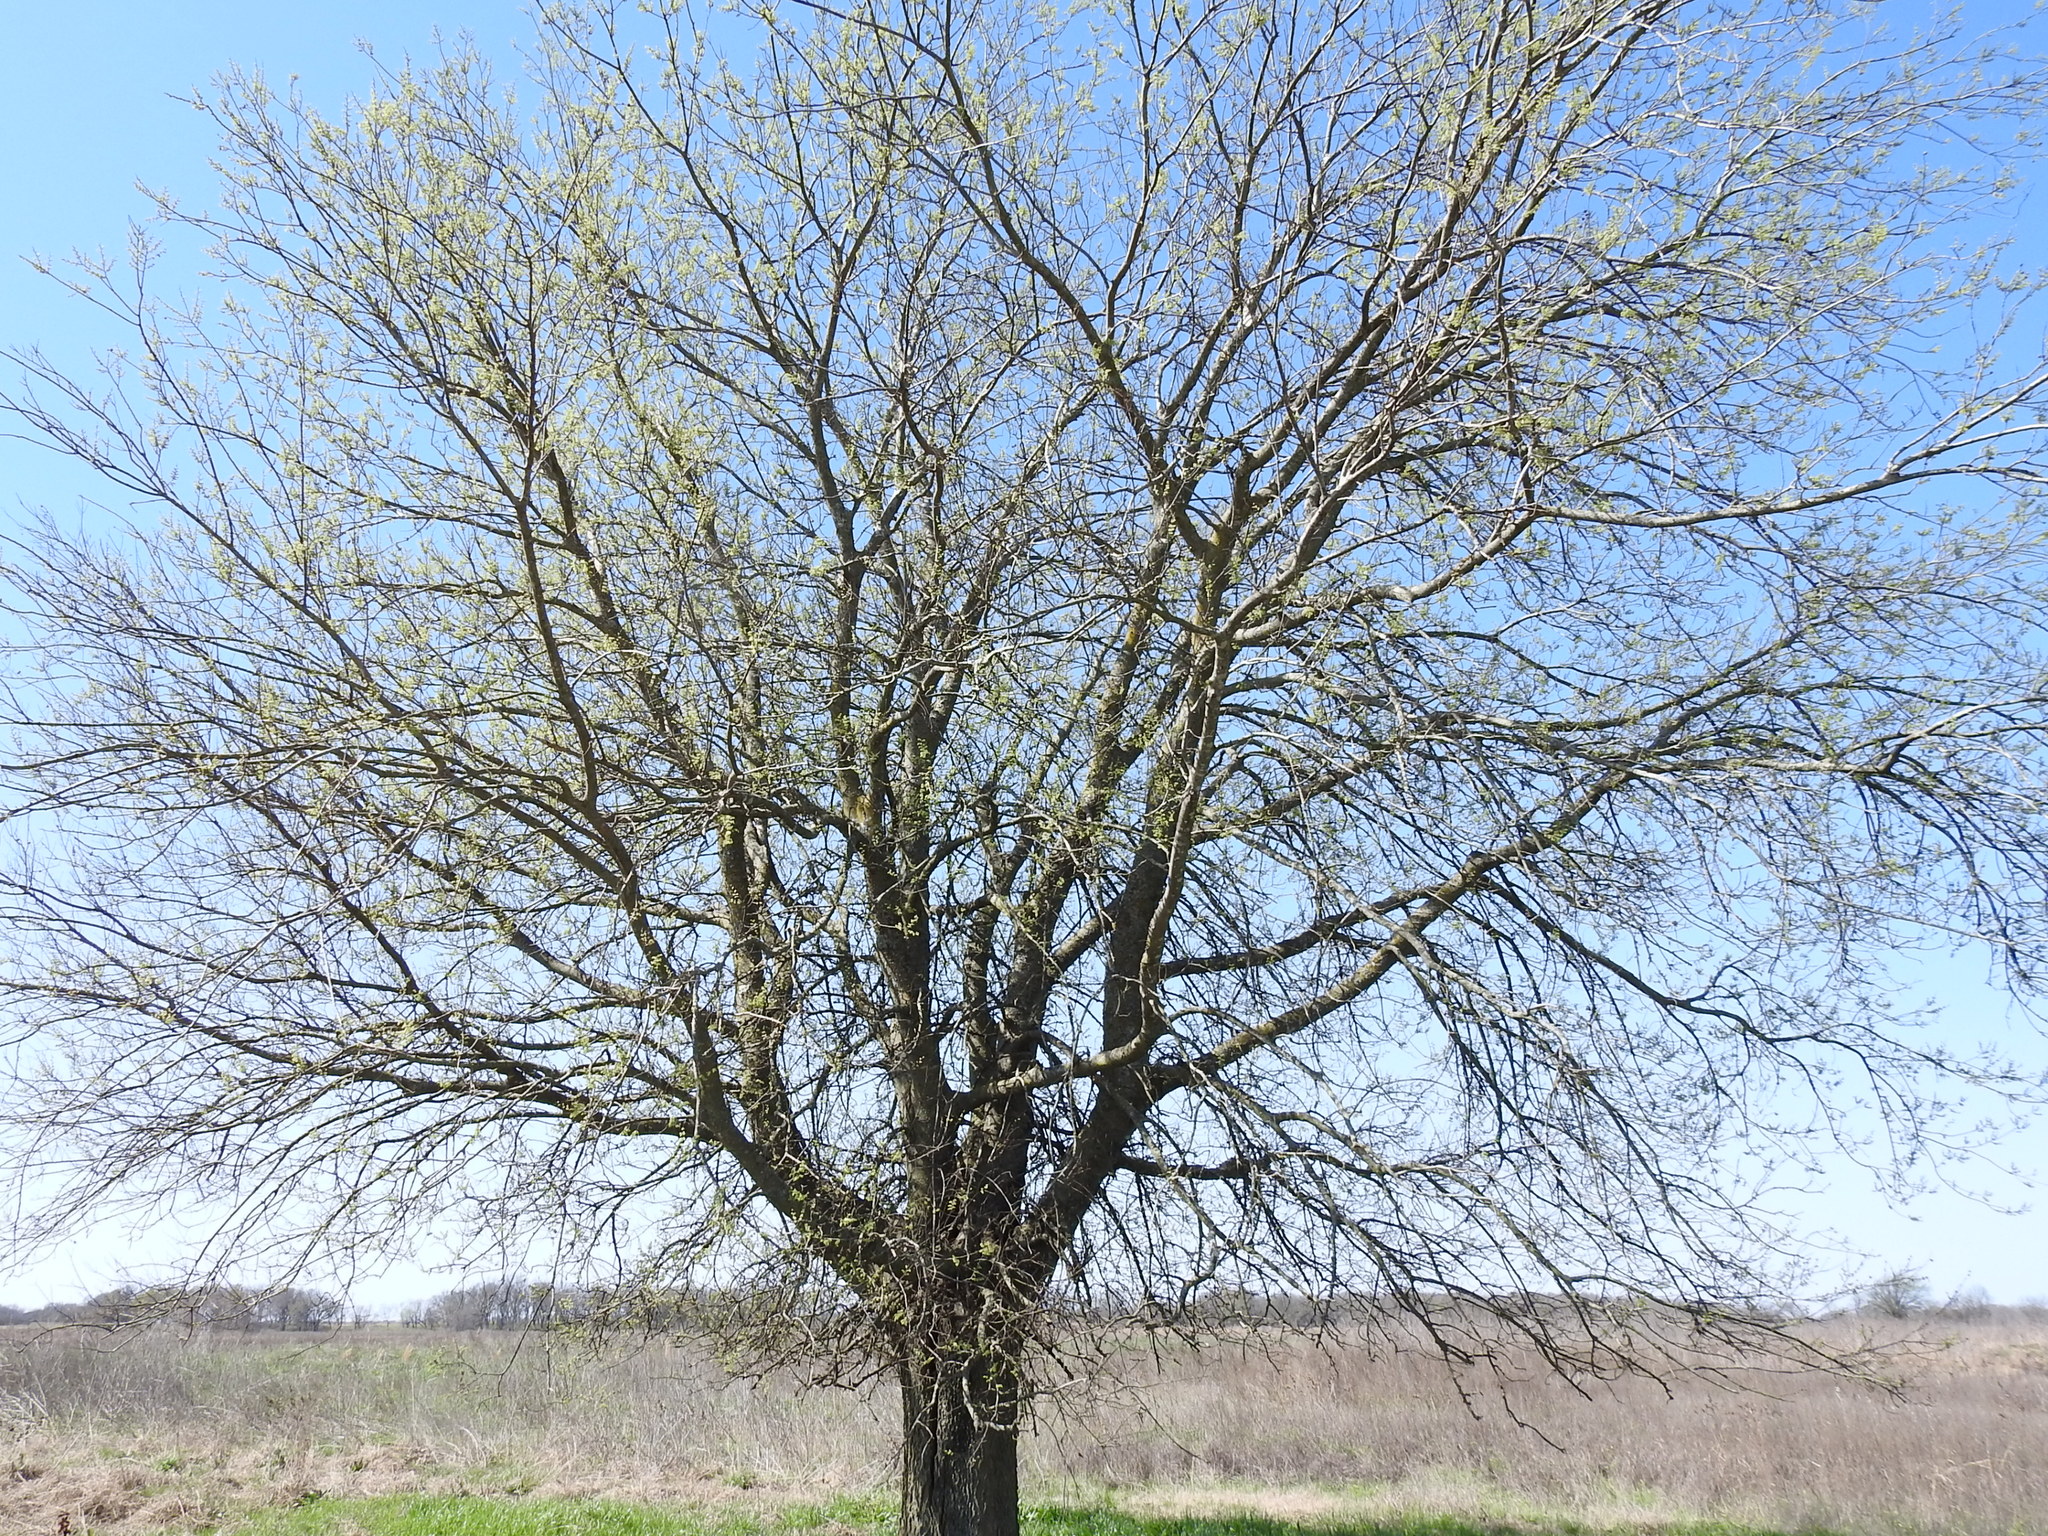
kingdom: Plantae
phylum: Tracheophyta
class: Magnoliopsida
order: Rosales
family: Cannabaceae
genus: Celtis
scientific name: Celtis laevigata
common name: Sugarberry
